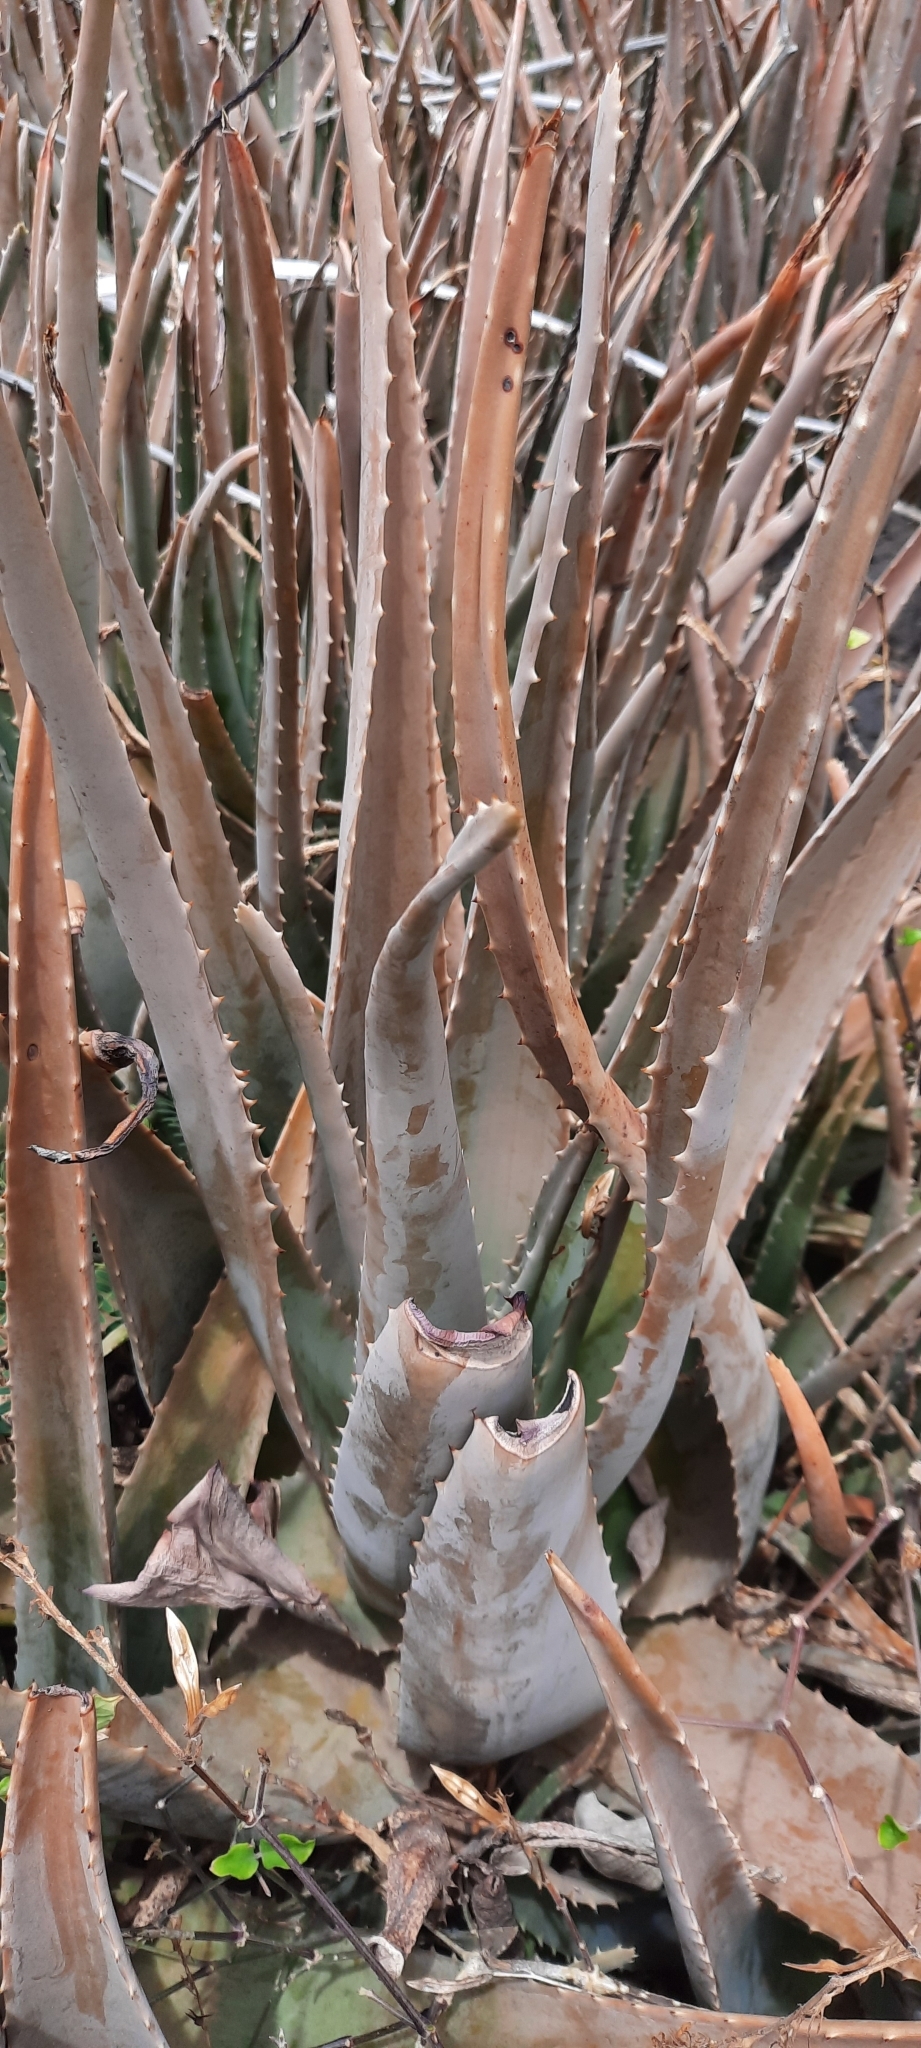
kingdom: Plantae
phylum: Tracheophyta
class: Liliopsida
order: Asparagales
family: Asphodelaceae
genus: Aloe
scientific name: Aloe vera
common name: Barbados aloe
